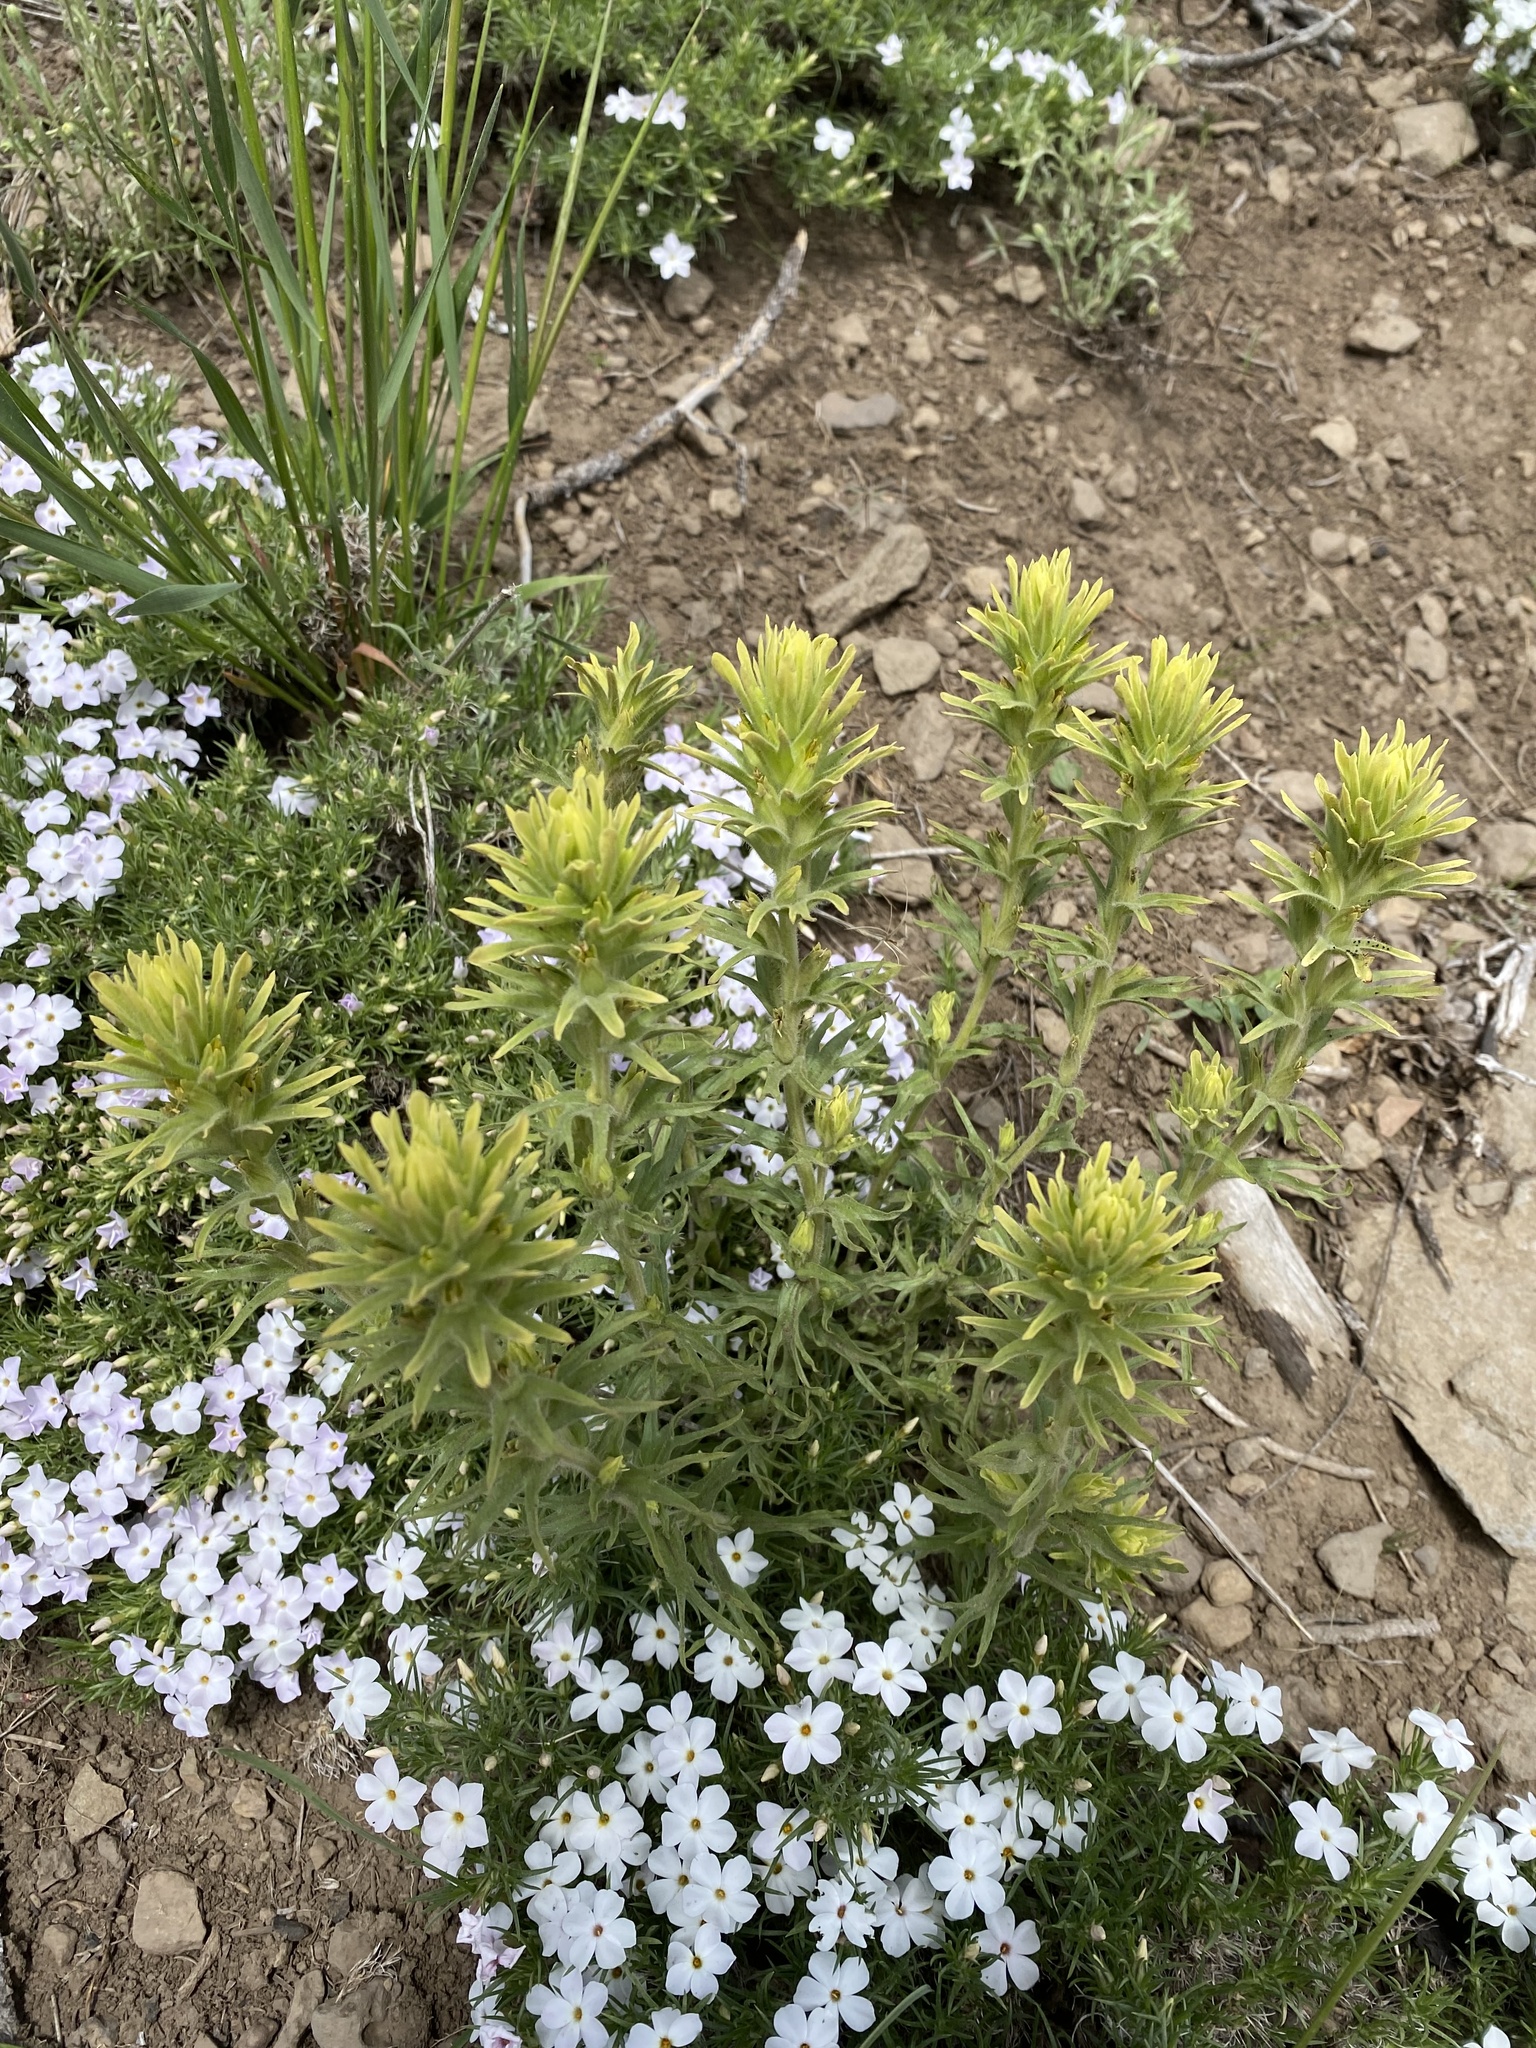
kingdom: Plantae
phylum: Tracheophyta
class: Magnoliopsida
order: Lamiales
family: Orobanchaceae
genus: Castilleja
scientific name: Castilleja glandulifera
